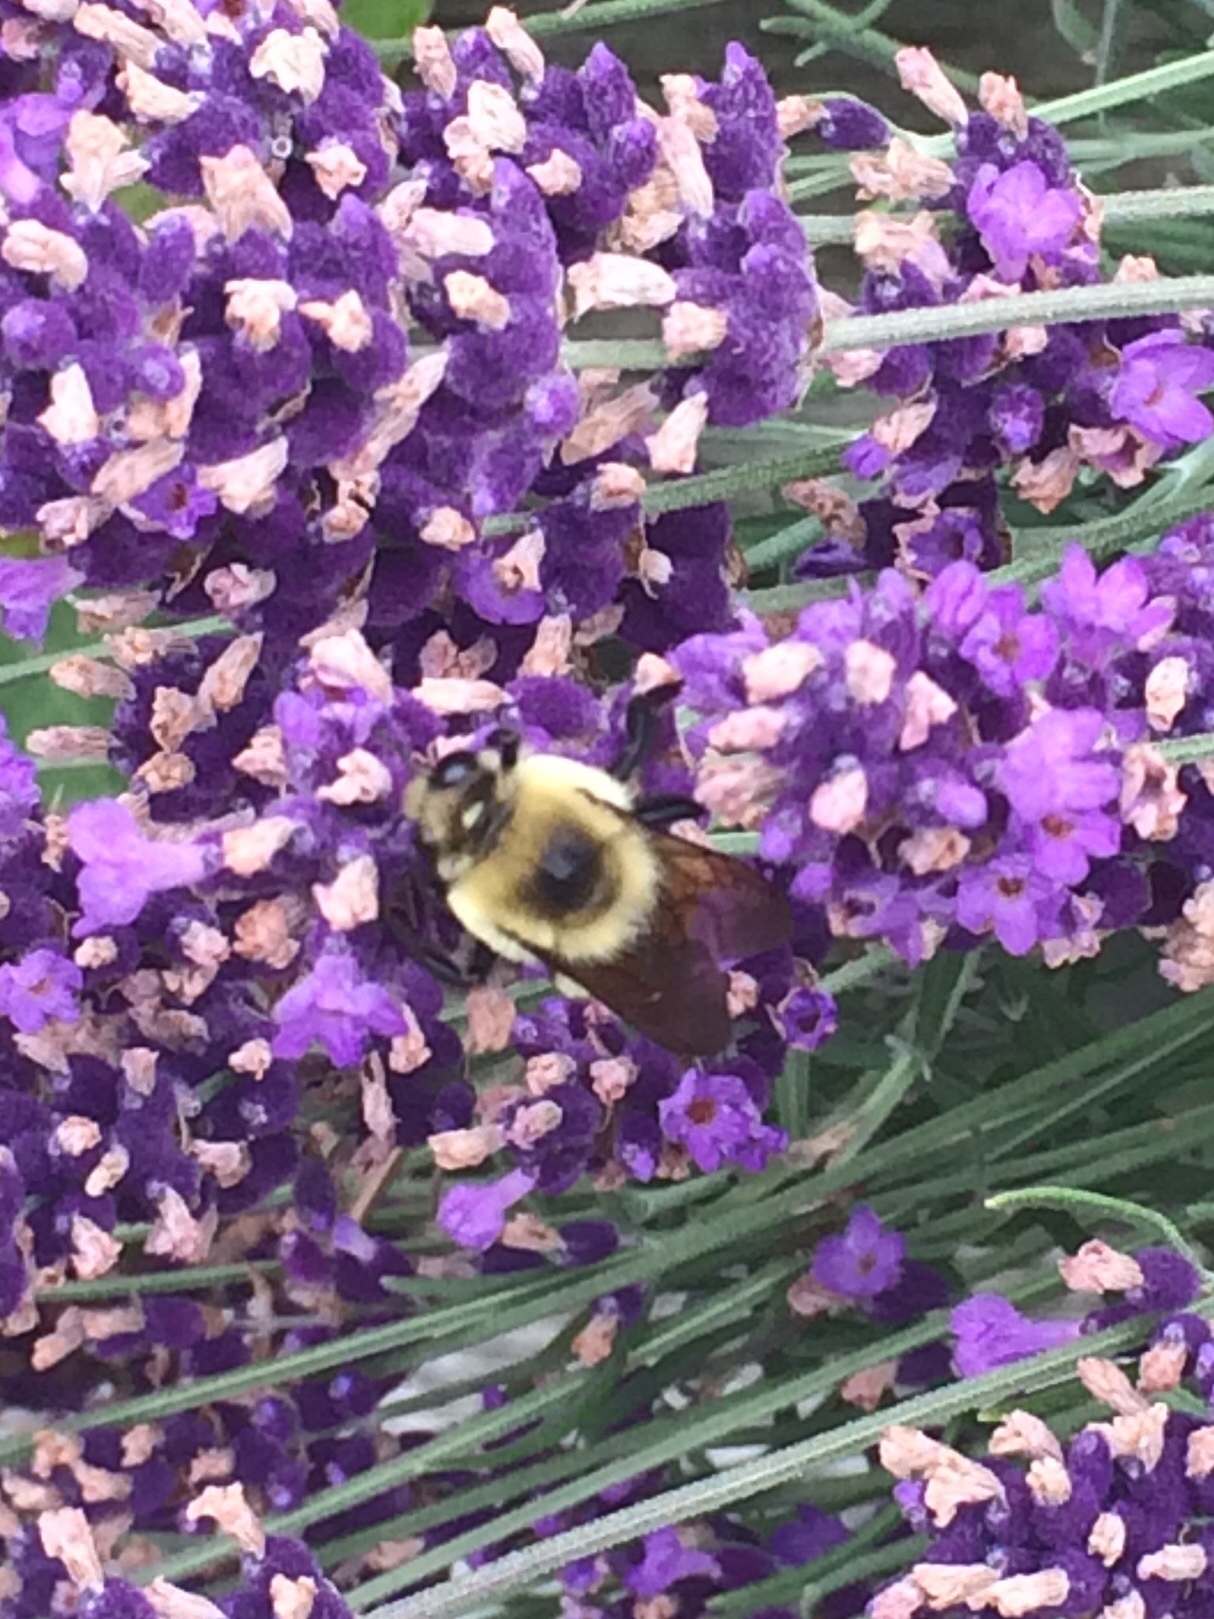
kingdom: Animalia
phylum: Arthropoda
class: Insecta
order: Hymenoptera
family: Apidae
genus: Bombus
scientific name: Bombus griseocollis
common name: Brown-belted bumble bee
